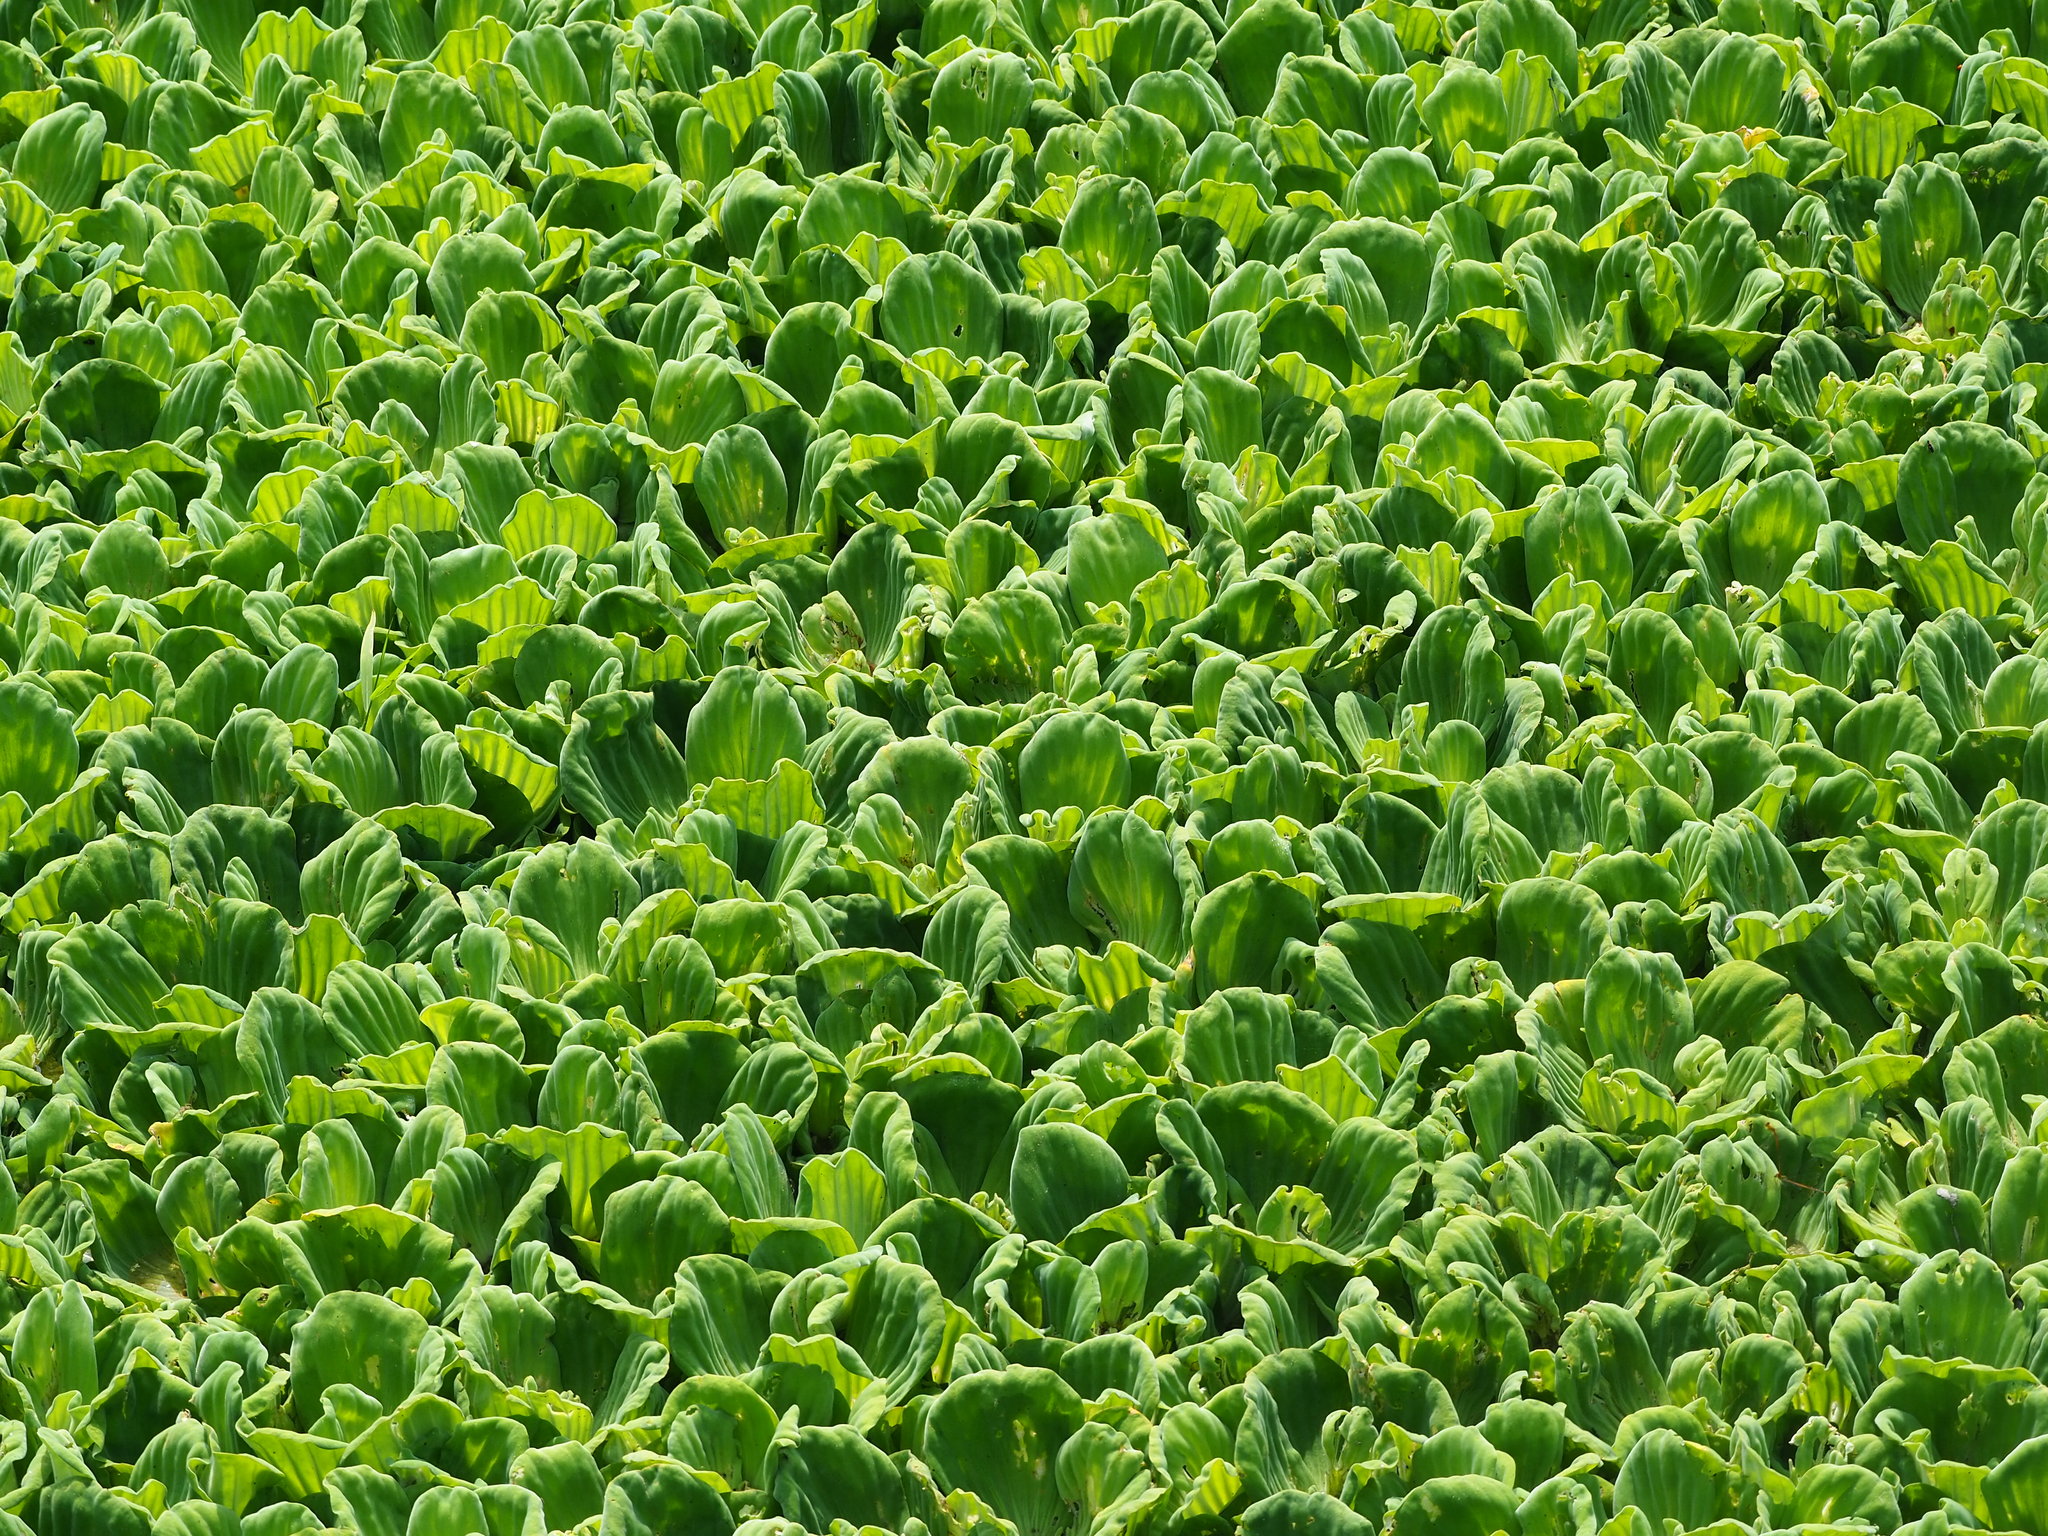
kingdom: Plantae
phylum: Tracheophyta
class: Liliopsida
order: Alismatales
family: Araceae
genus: Pistia
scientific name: Pistia stratiotes
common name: Water lettuce
